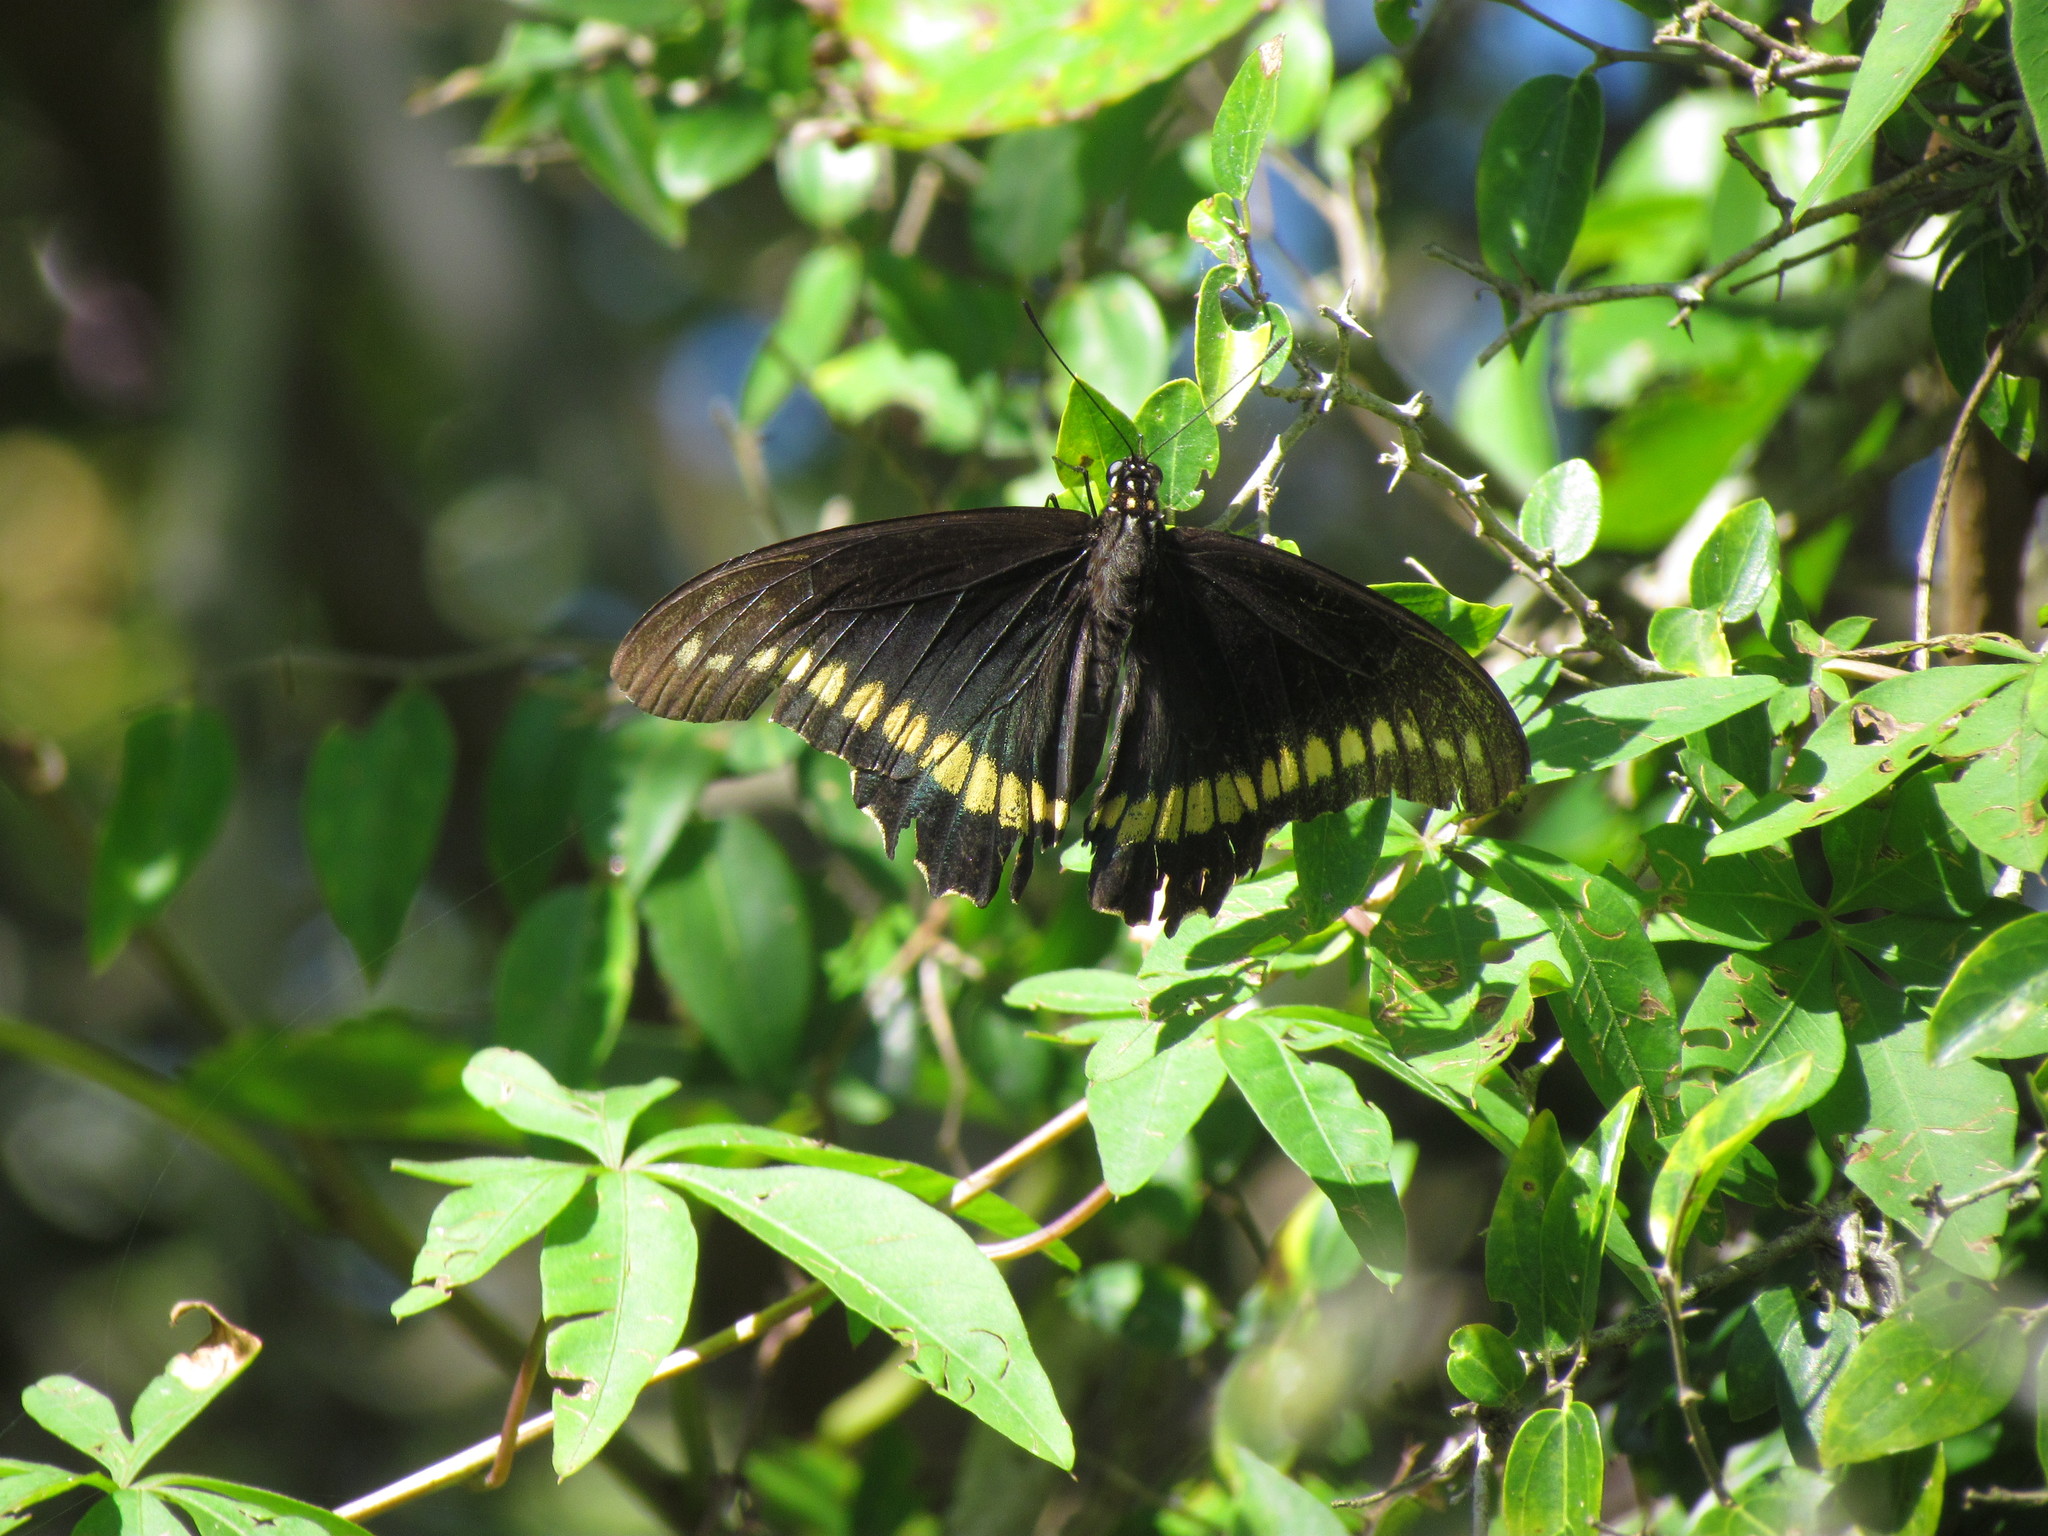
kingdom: Animalia
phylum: Arthropoda
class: Insecta
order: Lepidoptera
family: Papilionidae
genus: Battus
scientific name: Battus polydamas
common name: Polydamas swallowtail
